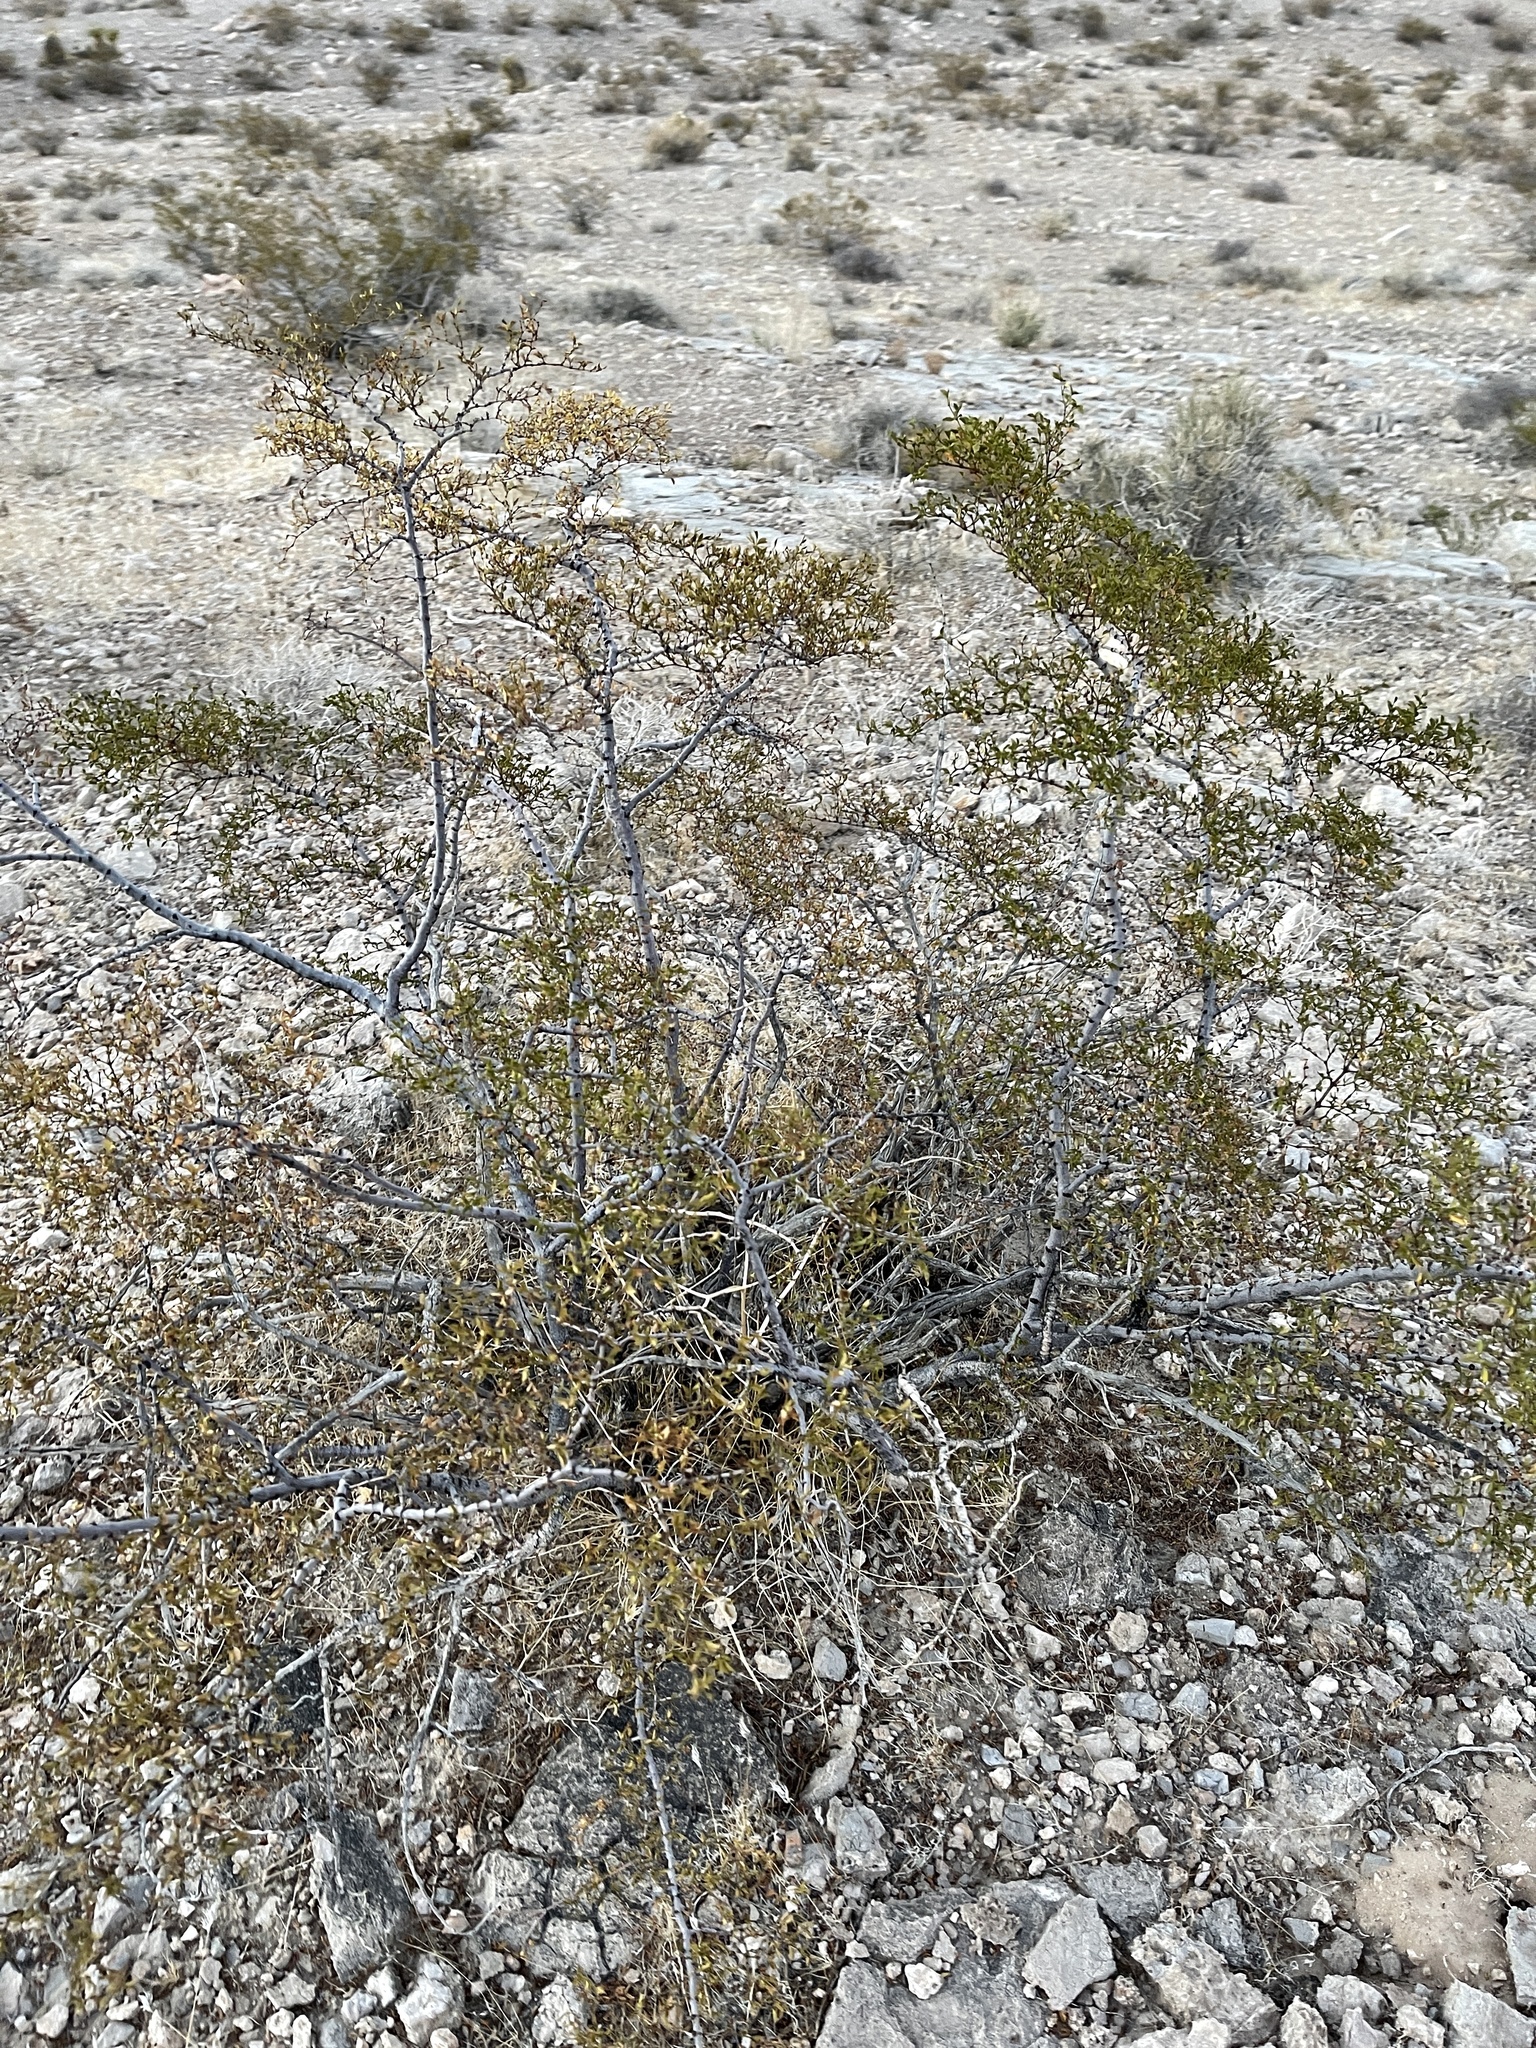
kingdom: Plantae
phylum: Tracheophyta
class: Magnoliopsida
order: Zygophyllales
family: Zygophyllaceae
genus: Larrea
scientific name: Larrea tridentata
